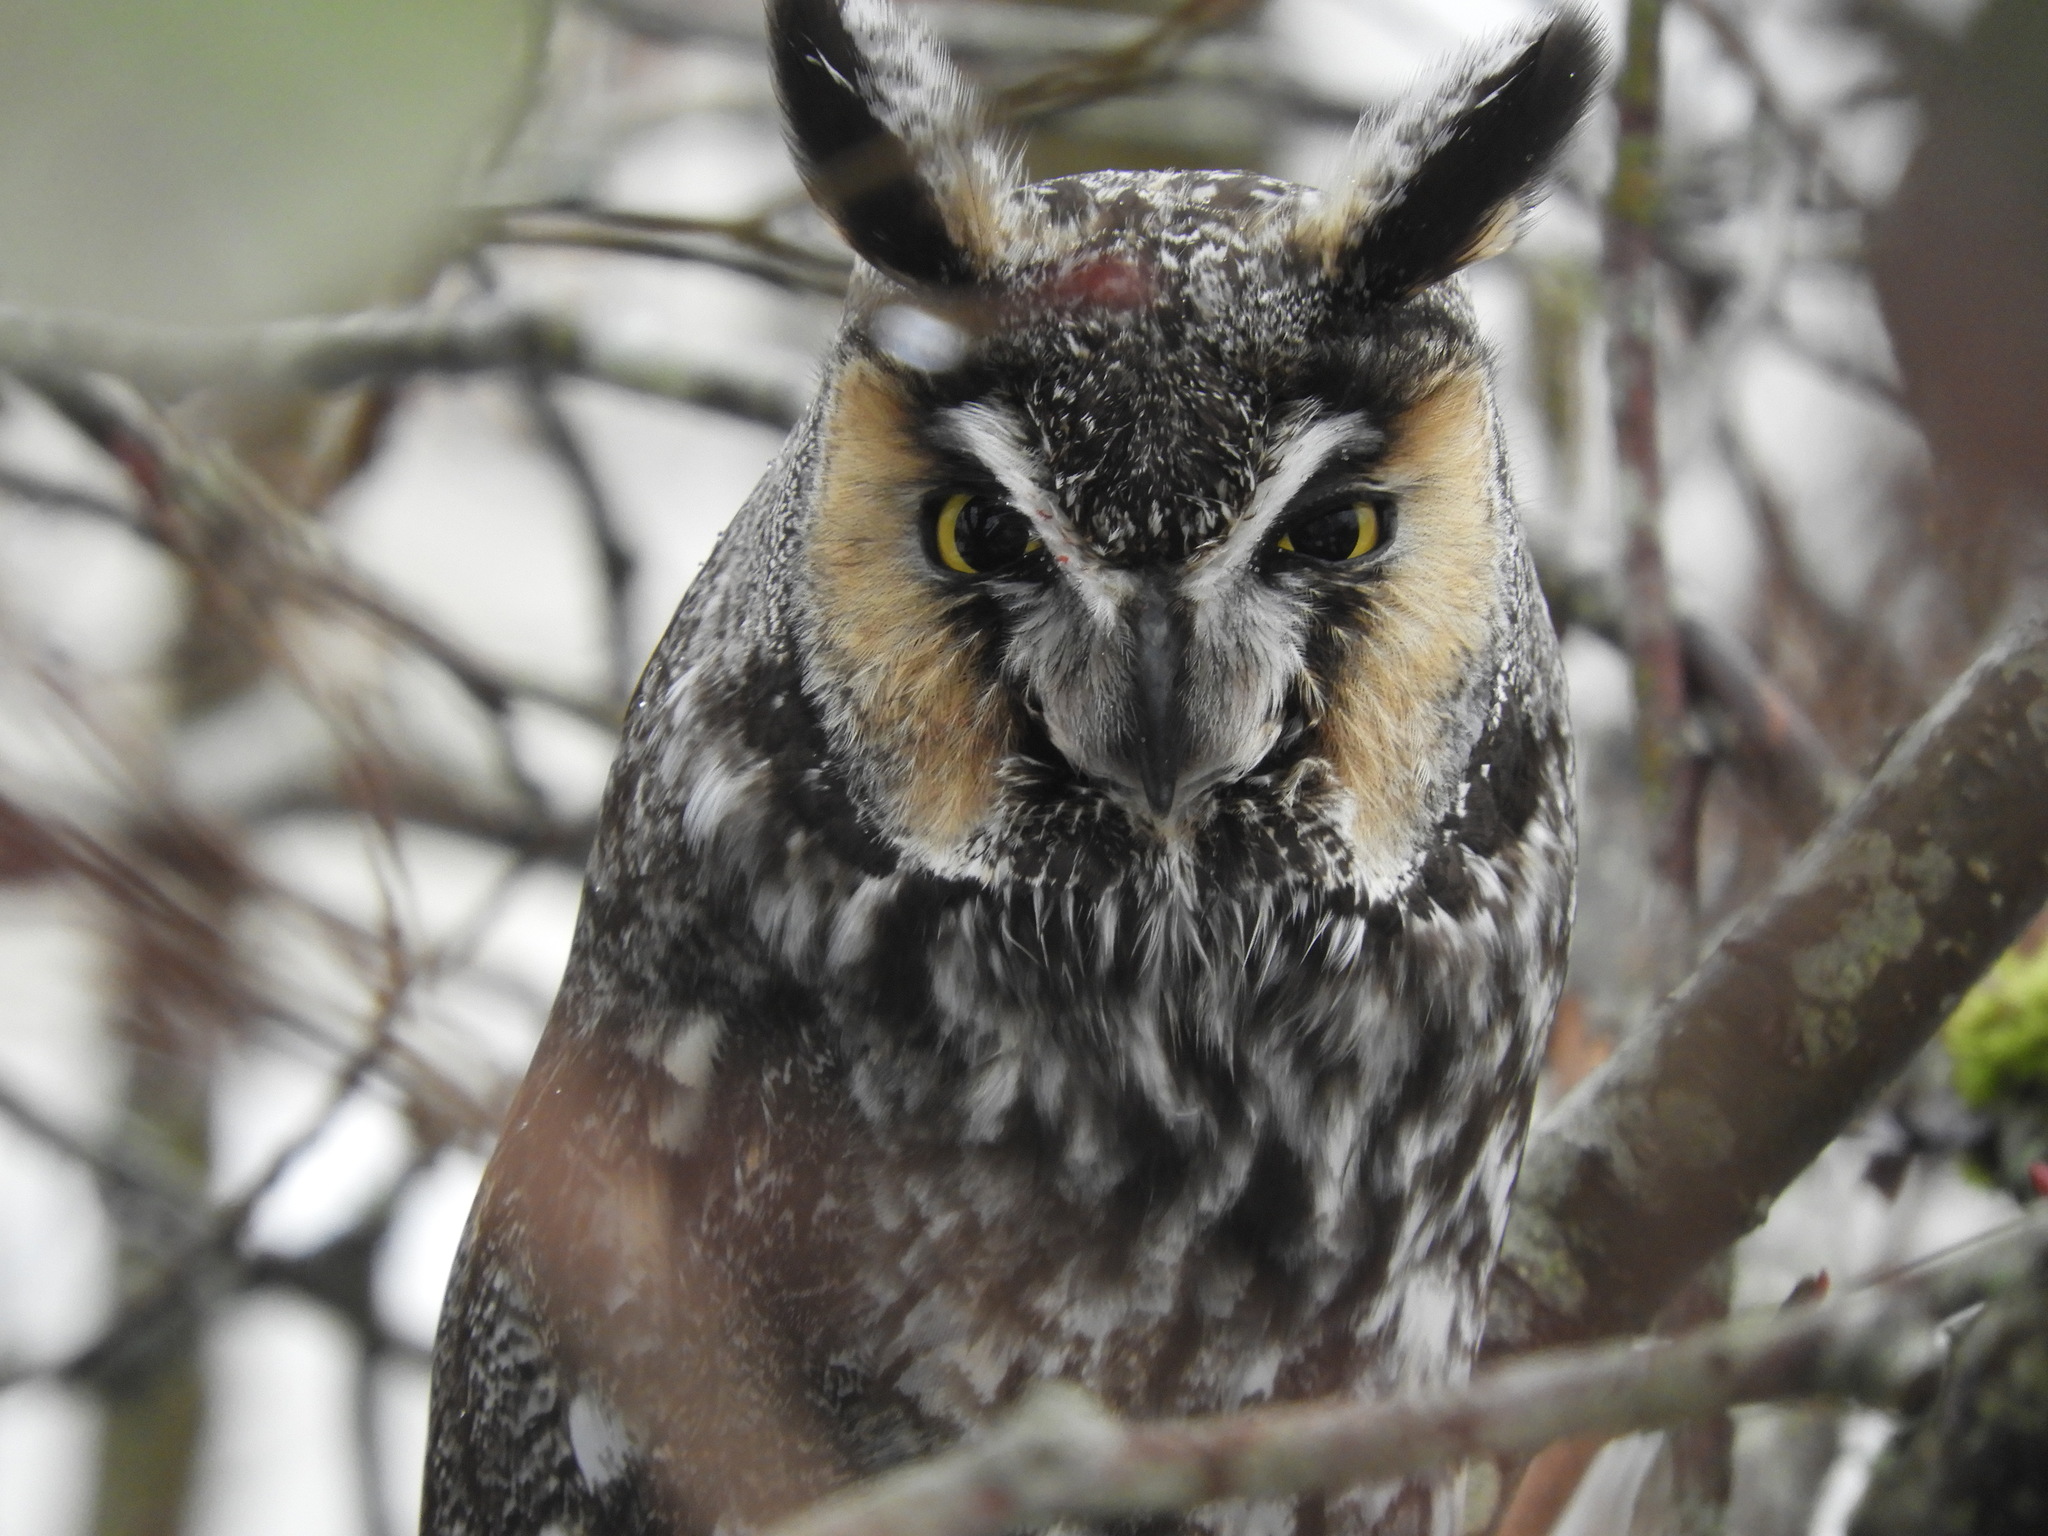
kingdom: Animalia
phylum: Chordata
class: Aves
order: Strigiformes
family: Strigidae
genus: Asio
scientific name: Asio otus
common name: Long-eared owl
